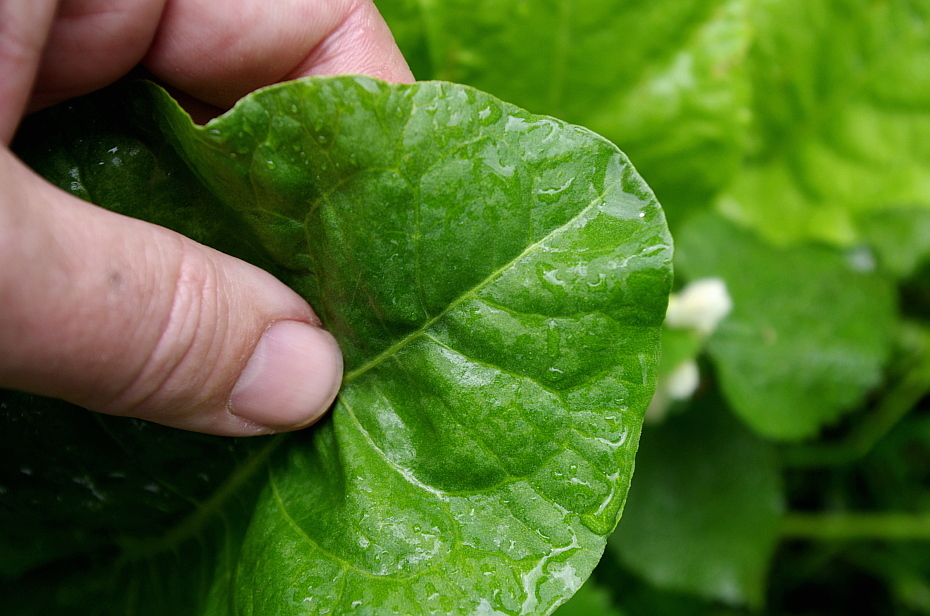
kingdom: Plantae
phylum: Tracheophyta
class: Magnoliopsida
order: Caryophyllales
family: Polygonaceae
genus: Rumex
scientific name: Rumex obtusifolius
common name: Bitter dock
